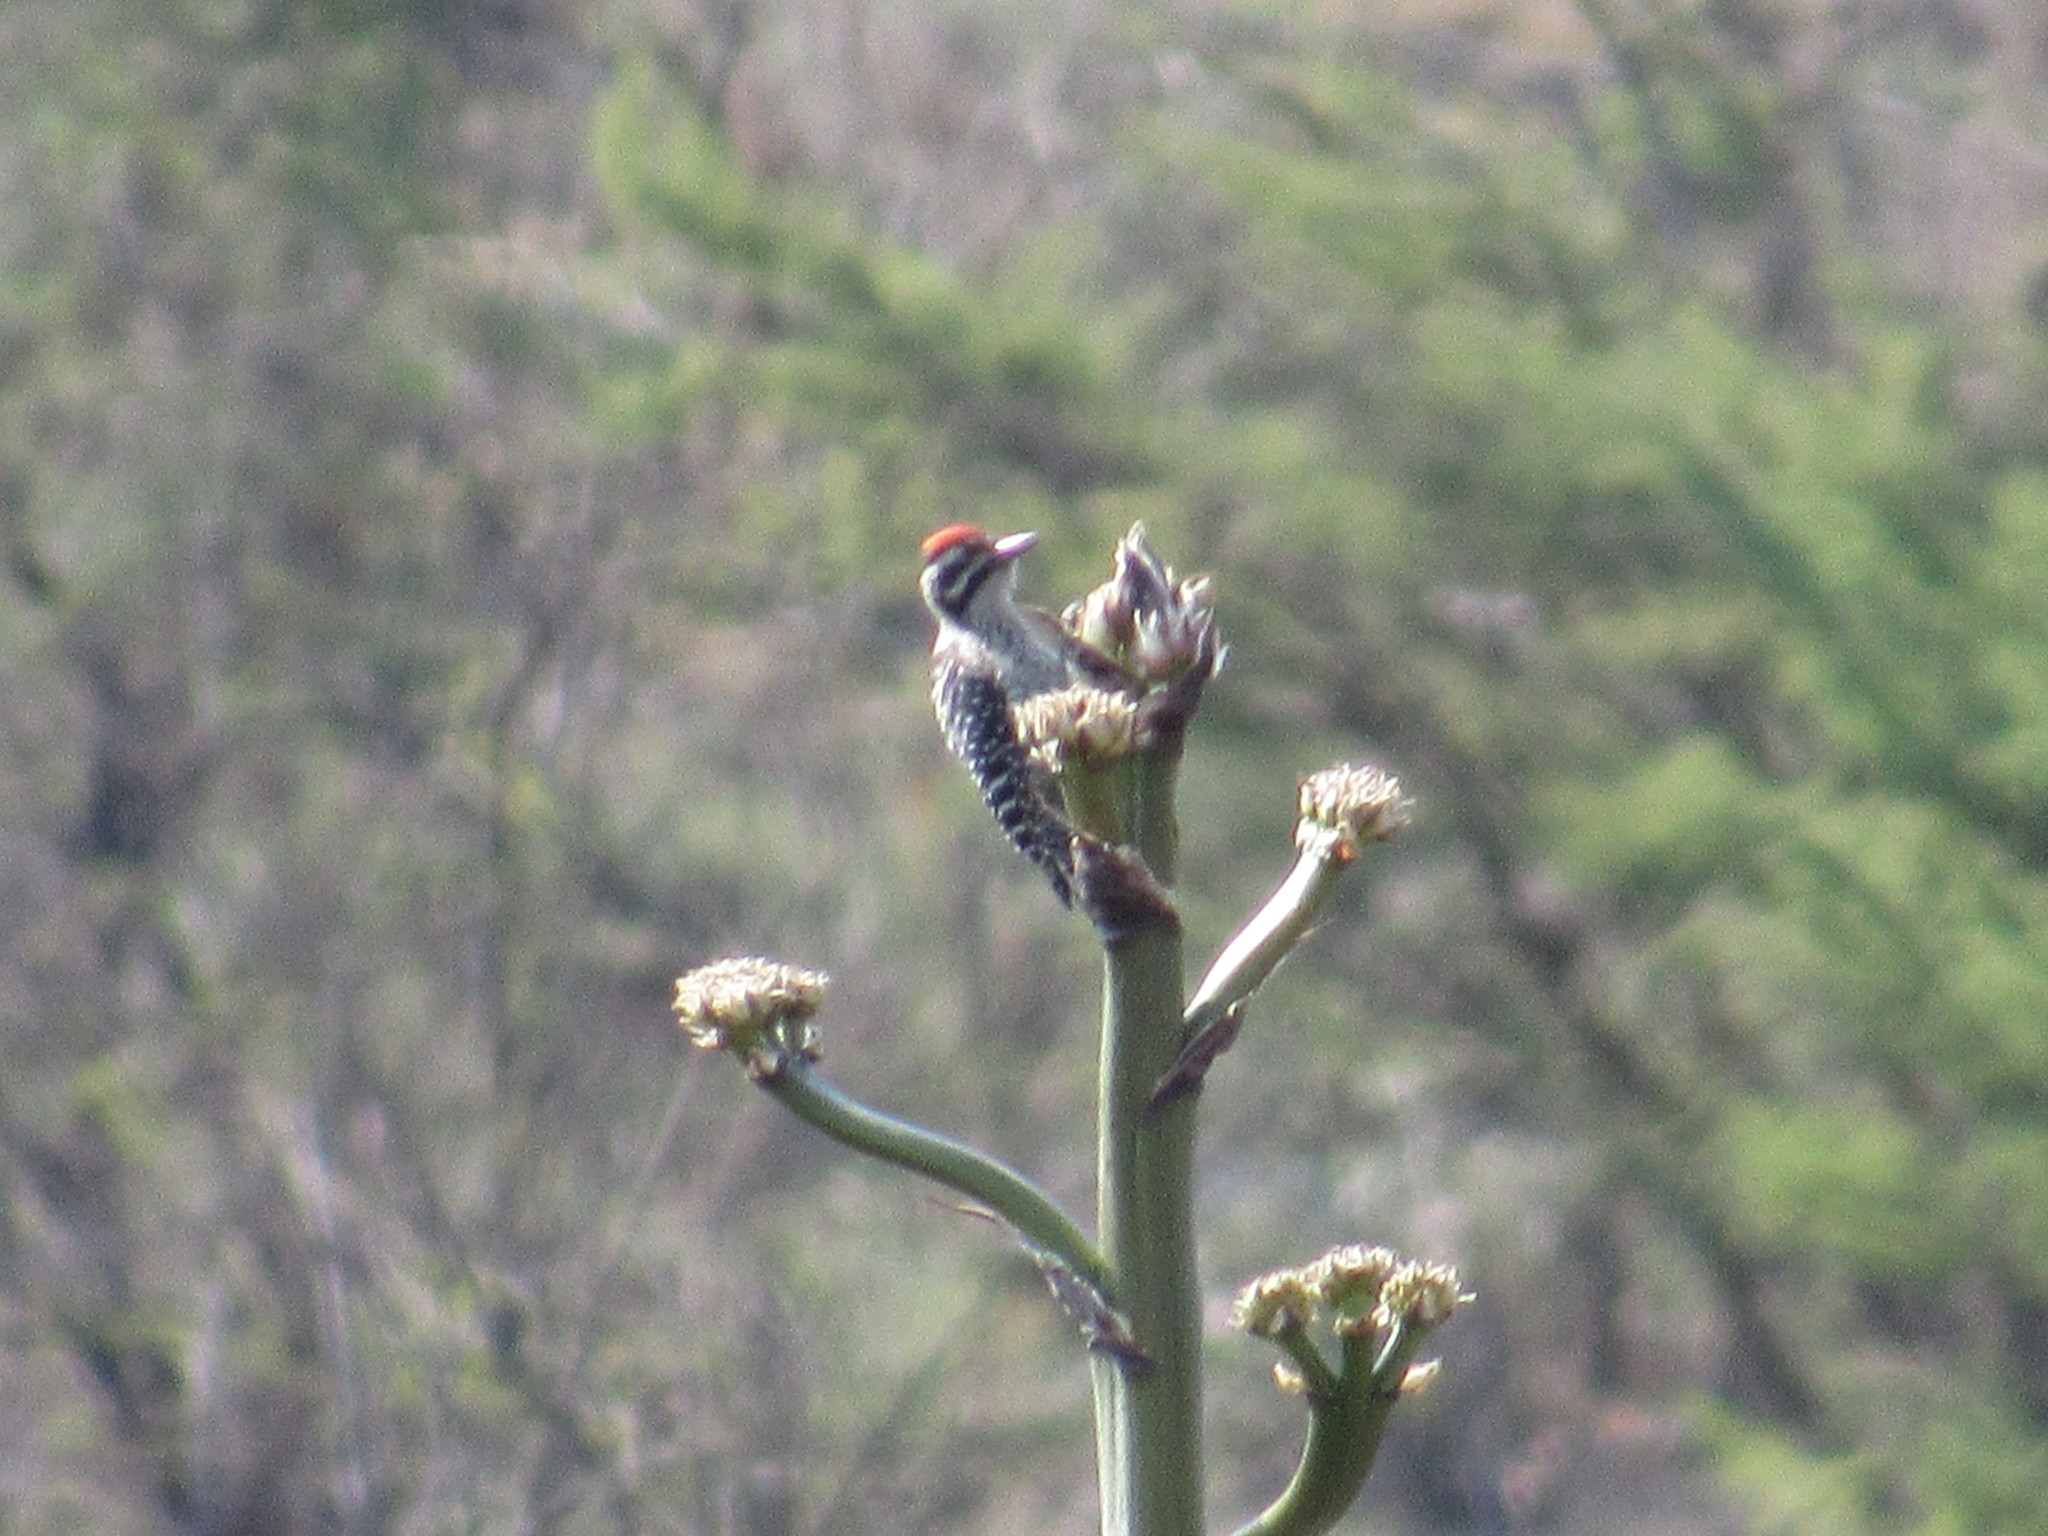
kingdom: Animalia
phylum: Chordata
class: Aves
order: Piciformes
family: Picidae
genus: Dryobates
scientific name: Dryobates scalaris
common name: Ladder-backed woodpecker
